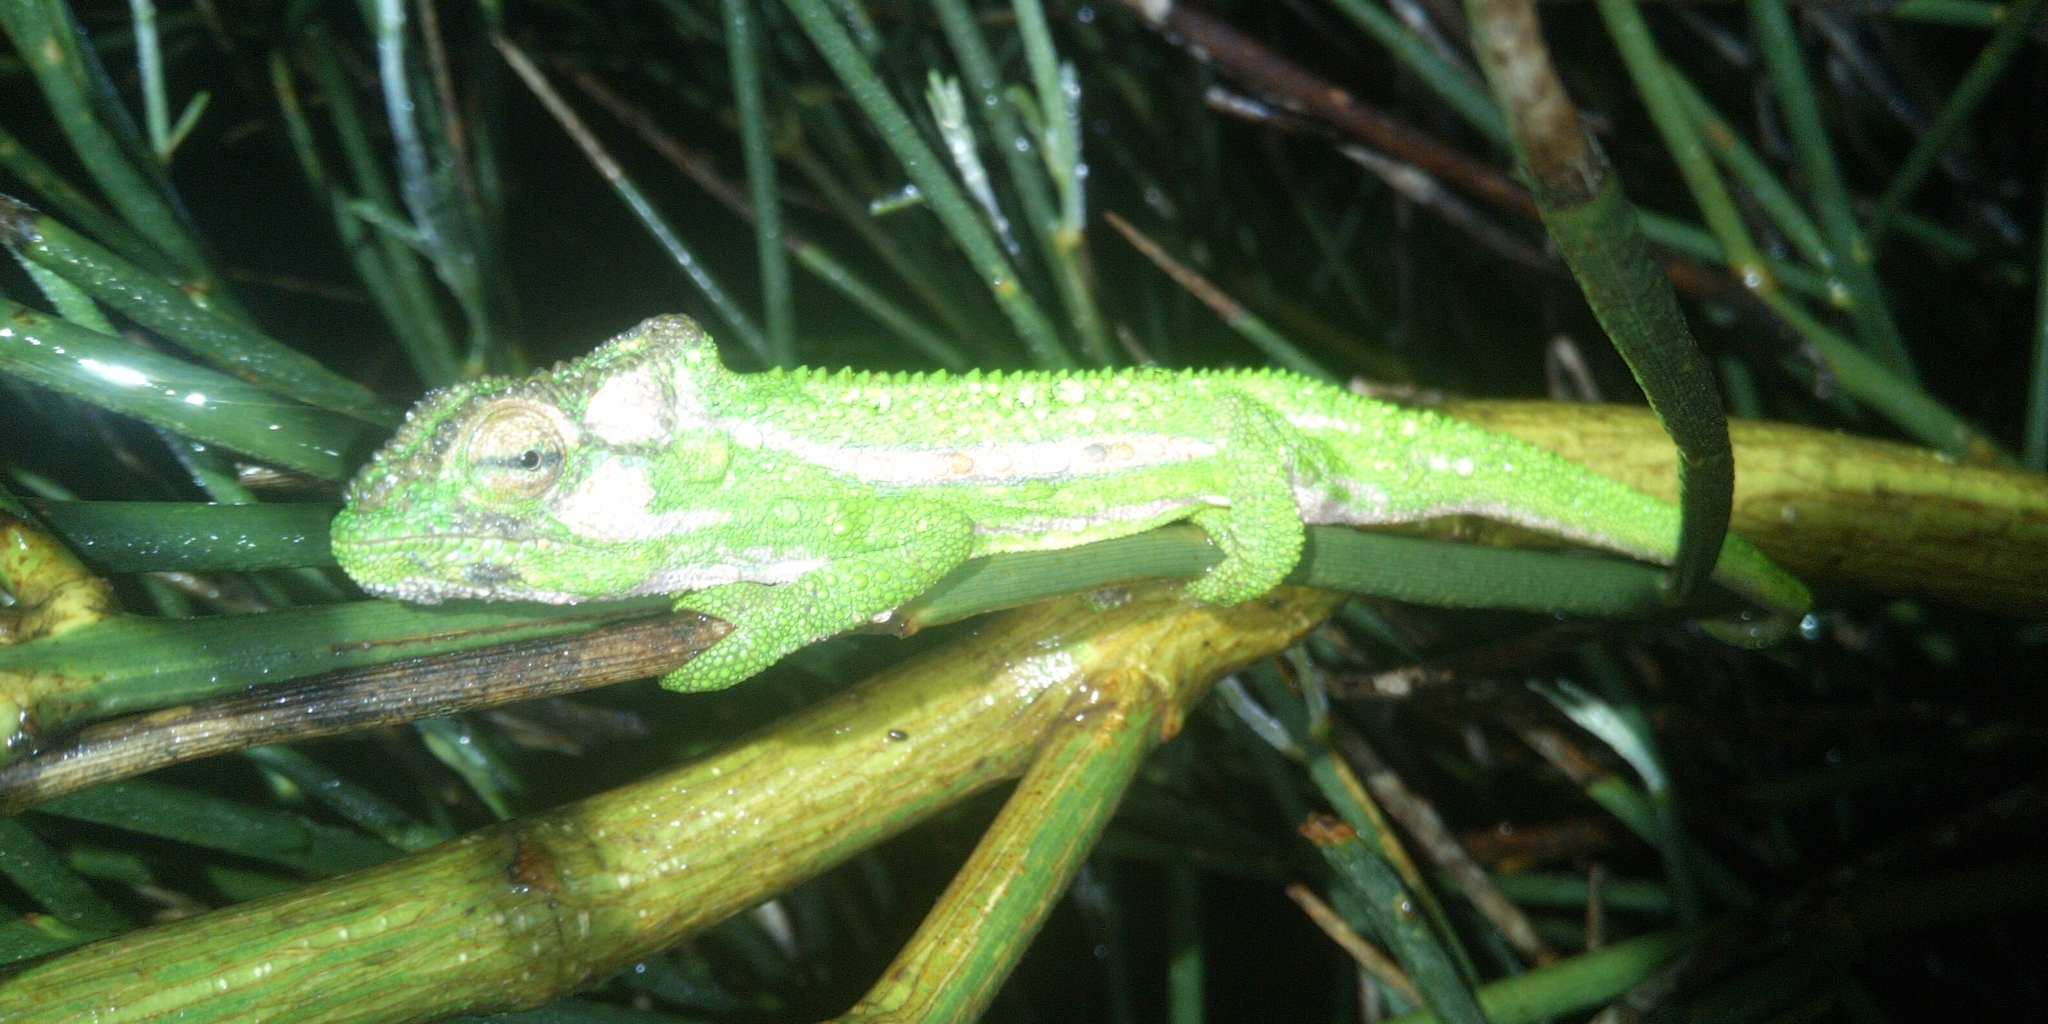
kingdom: Animalia
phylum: Chordata
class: Squamata
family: Chamaeleonidae
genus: Bradypodion
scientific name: Bradypodion pumilum
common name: Cape dwarf chameleon
